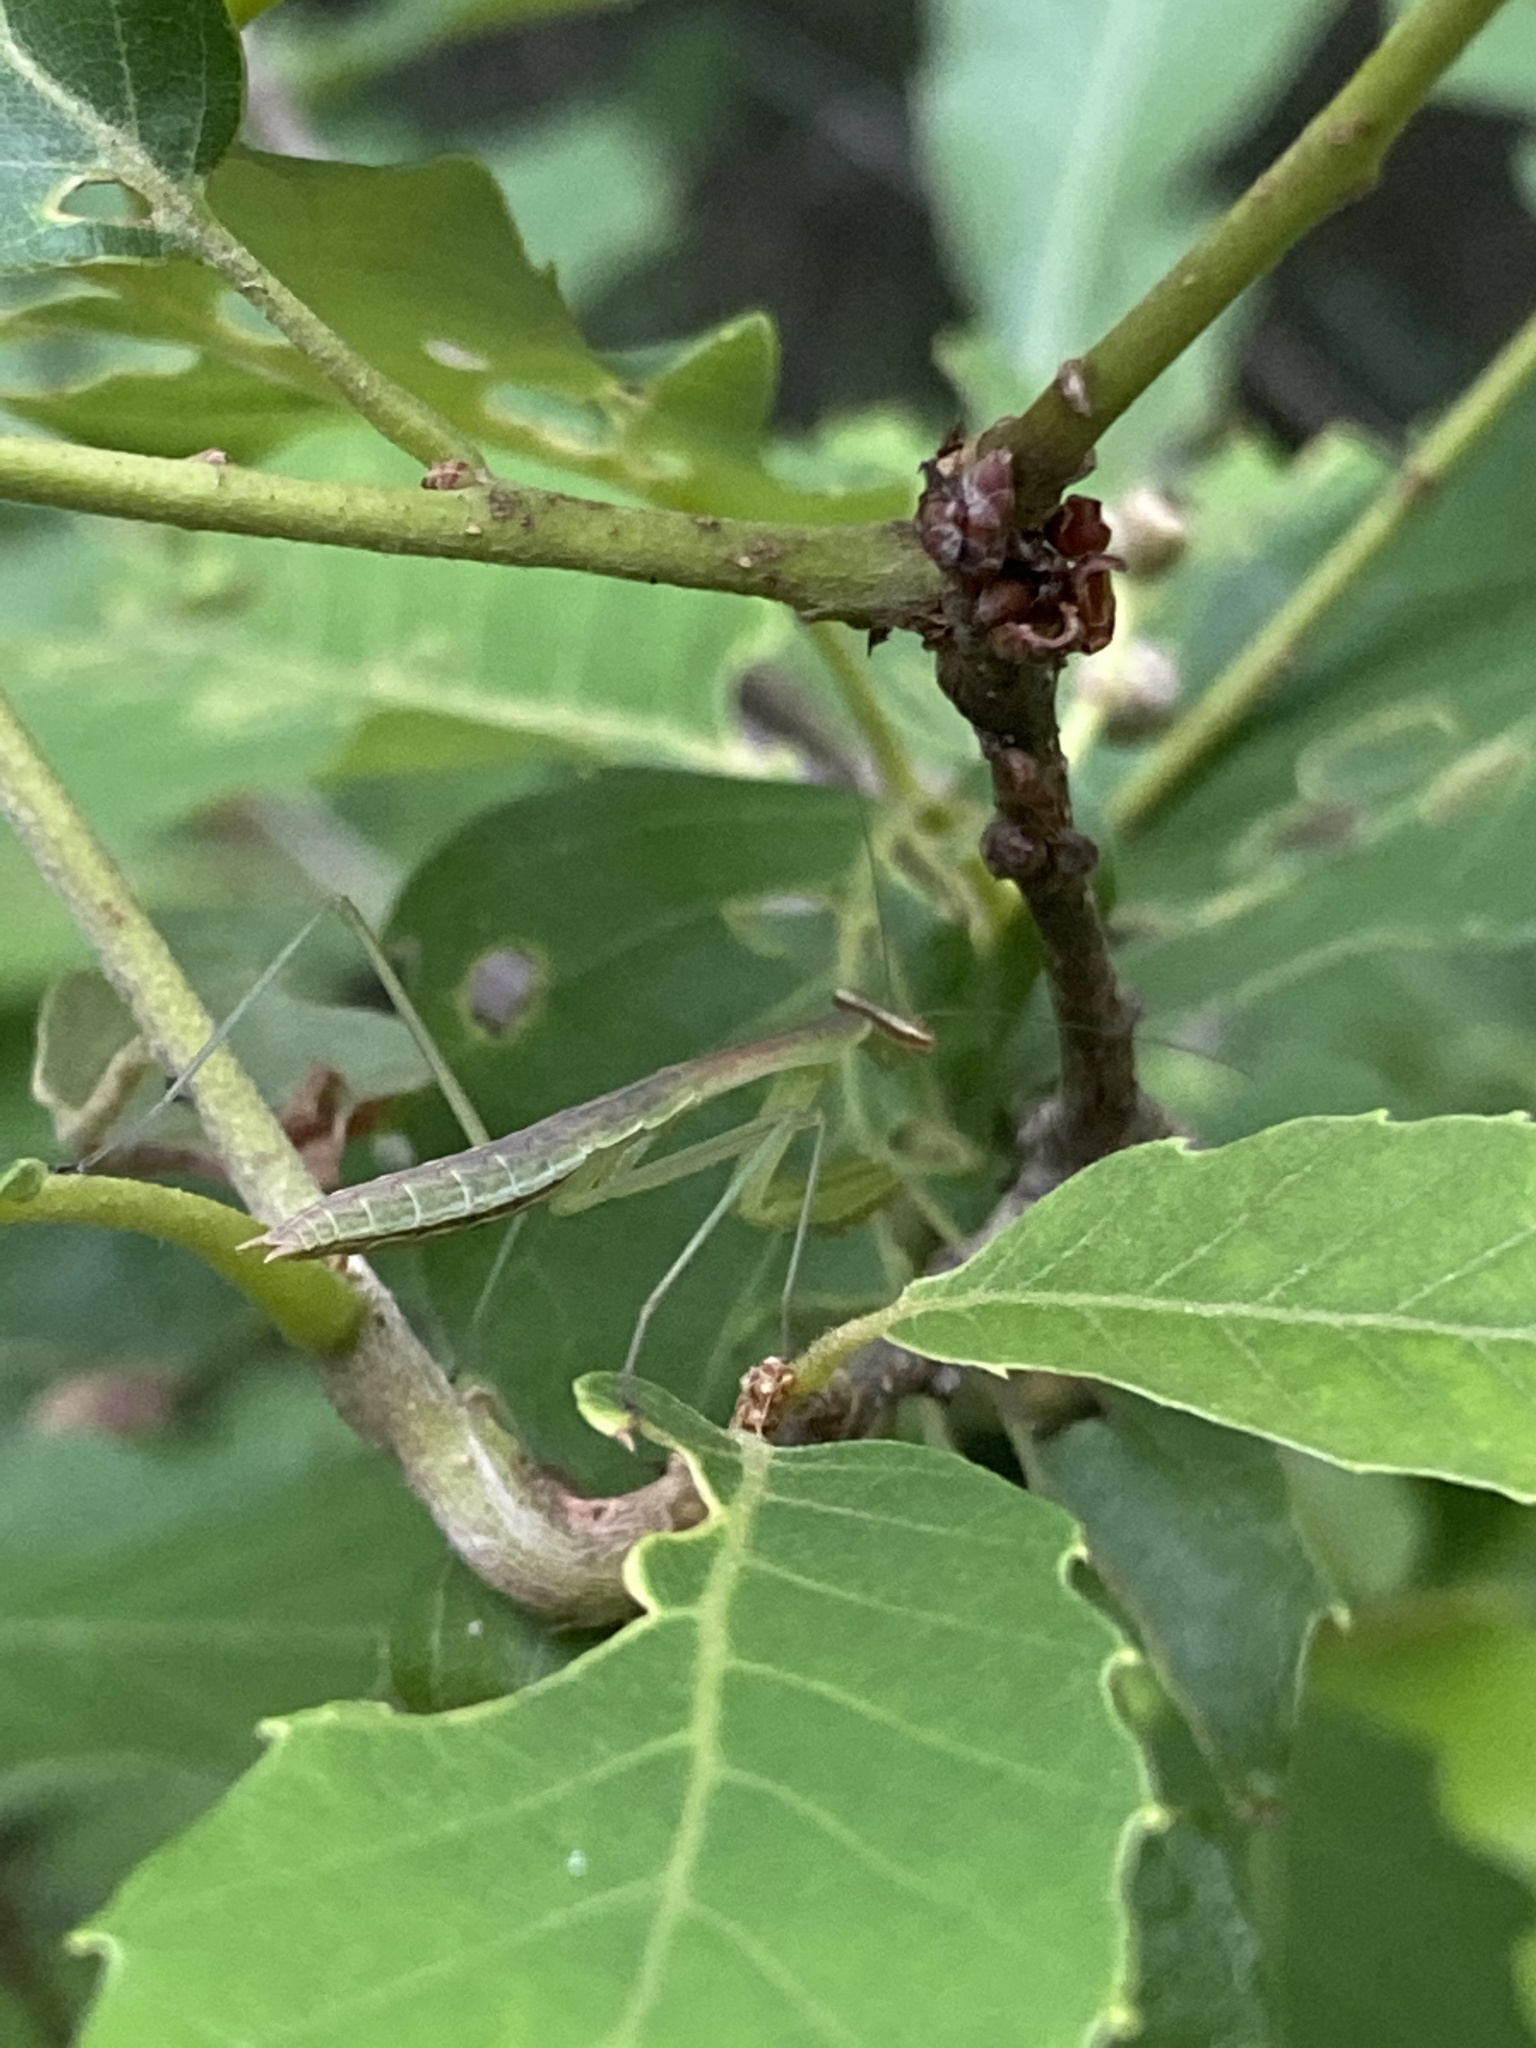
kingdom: Animalia
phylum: Arthropoda
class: Insecta
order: Mantodea
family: Mantidae
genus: Tenodera
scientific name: Tenodera sinensis
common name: Chinese mantis
